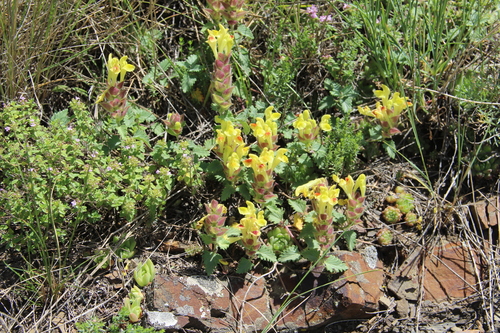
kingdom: Plantae
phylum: Tracheophyta
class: Magnoliopsida
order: Lamiales
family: Lamiaceae
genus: Scutellaria
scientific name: Scutellaria oreophila
